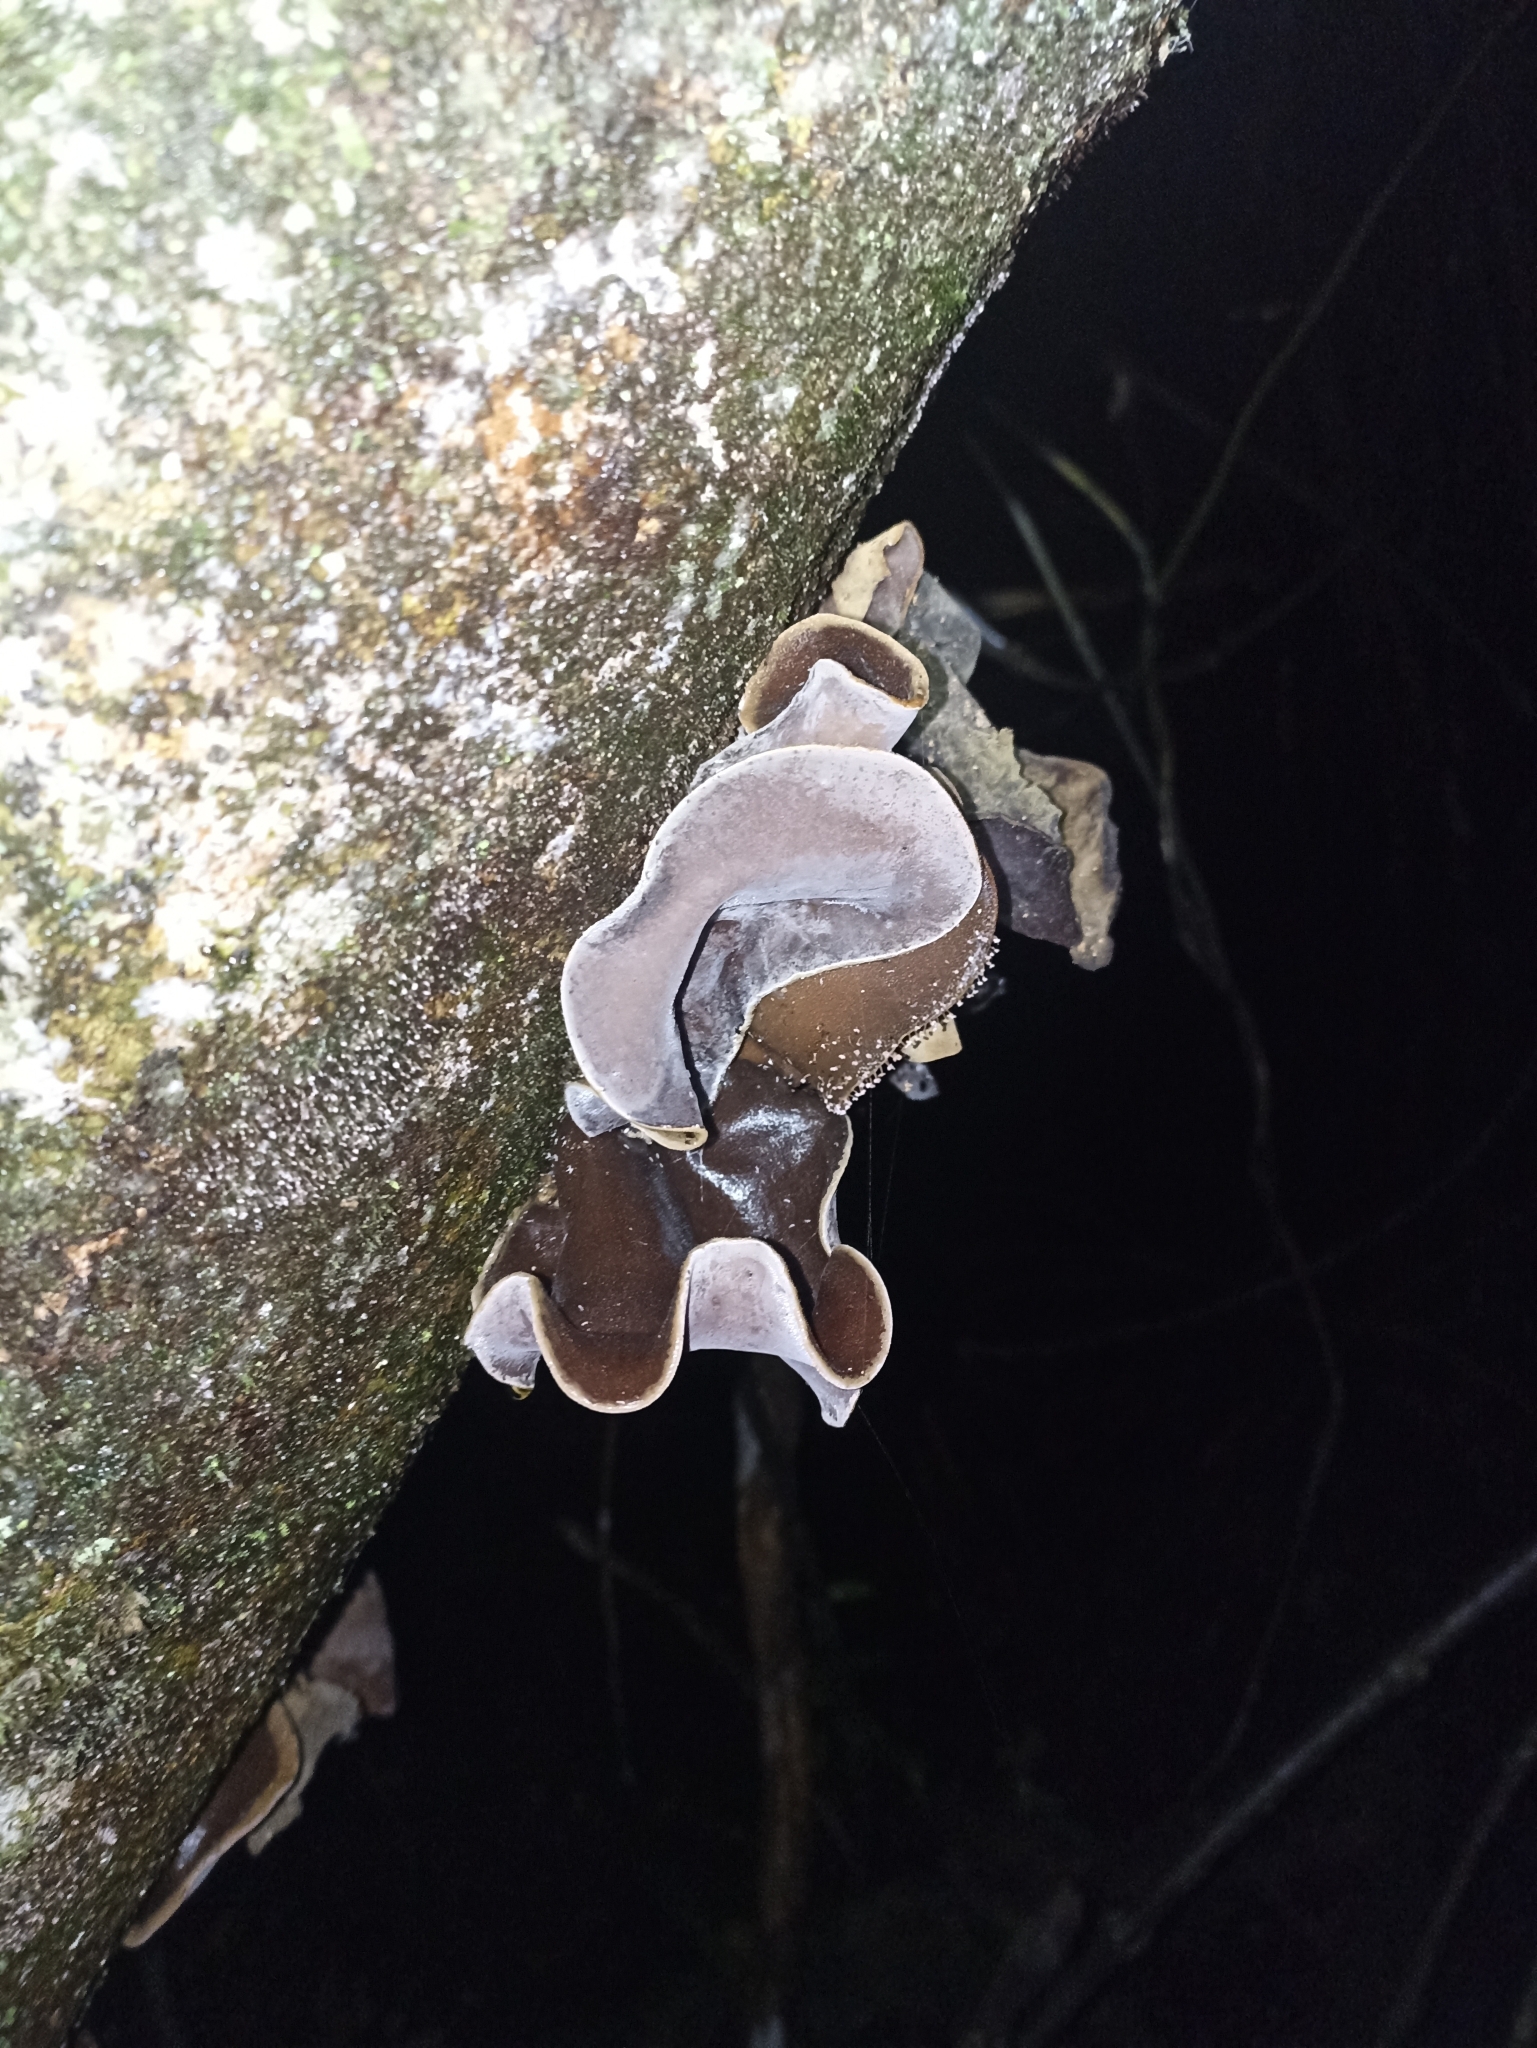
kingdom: Fungi
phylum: Basidiomycota
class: Agaricomycetes
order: Auriculariales
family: Auriculariaceae
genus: Auricularia
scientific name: Auricularia cornea
